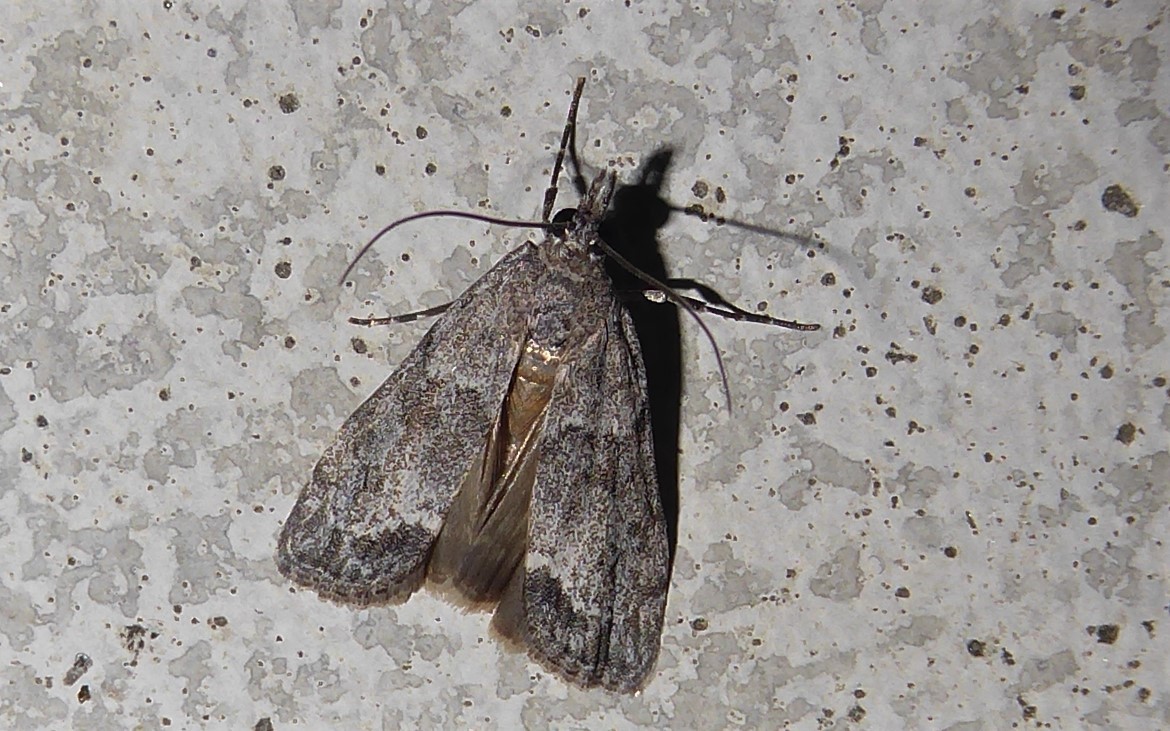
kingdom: Animalia
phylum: Arthropoda
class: Insecta
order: Lepidoptera
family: Crambidae
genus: Eudonia
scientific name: Eudonia rakaiensis
